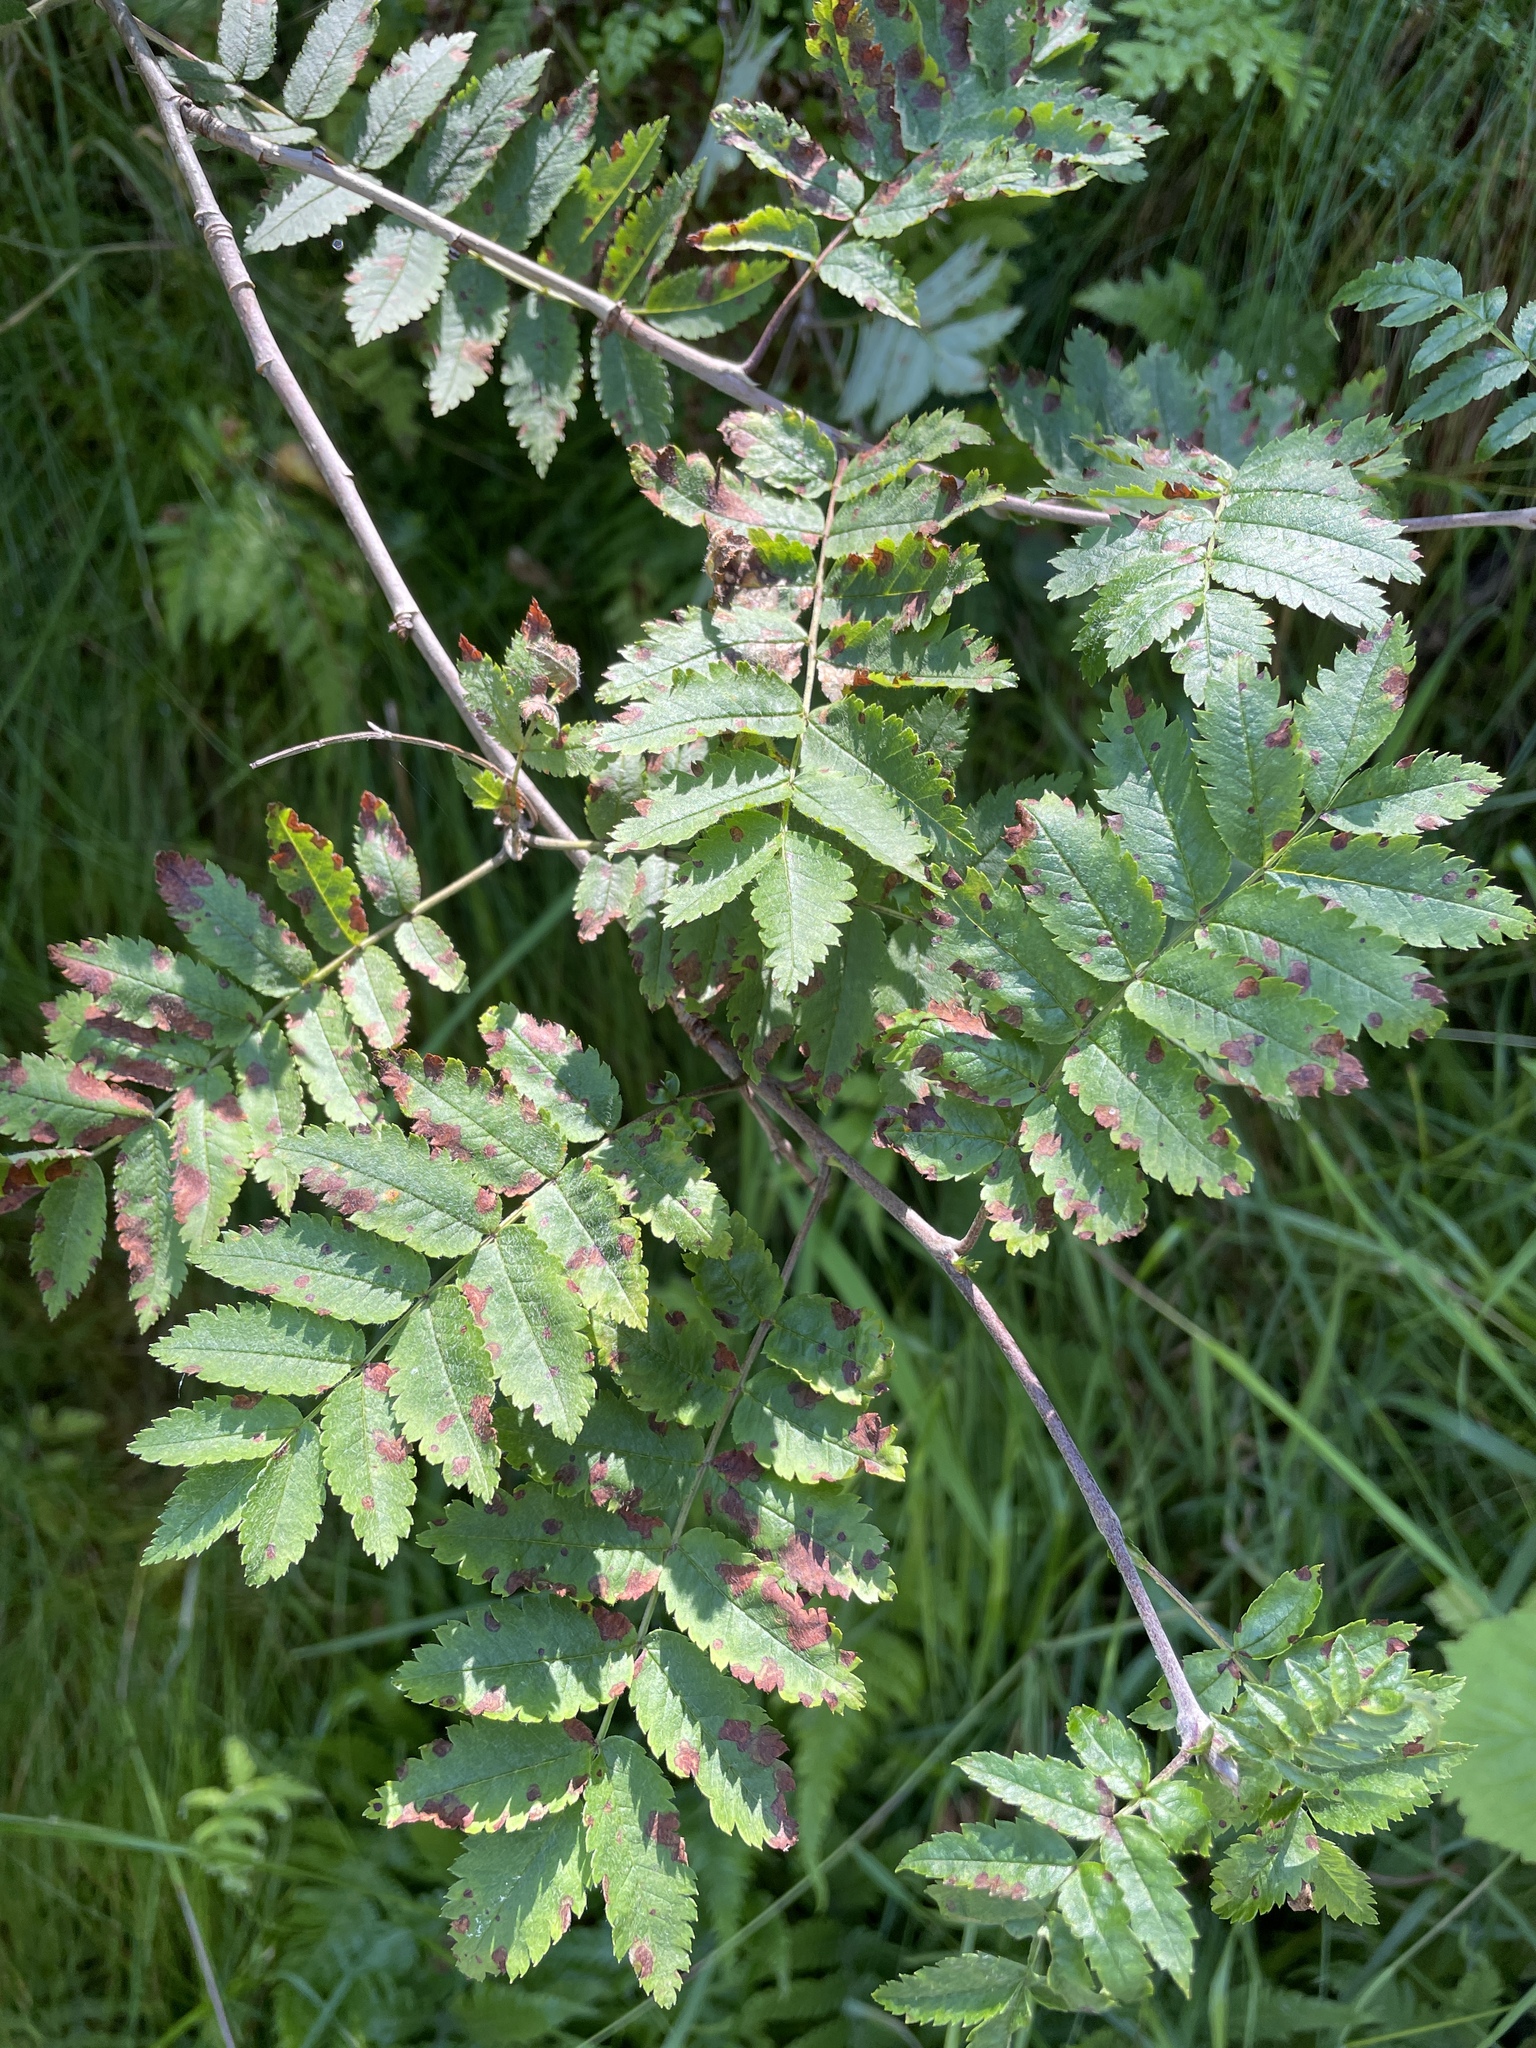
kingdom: Plantae
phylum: Tracheophyta
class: Magnoliopsida
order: Rosales
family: Rosaceae
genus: Sorbus
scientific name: Sorbus aucuparia
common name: Rowan
